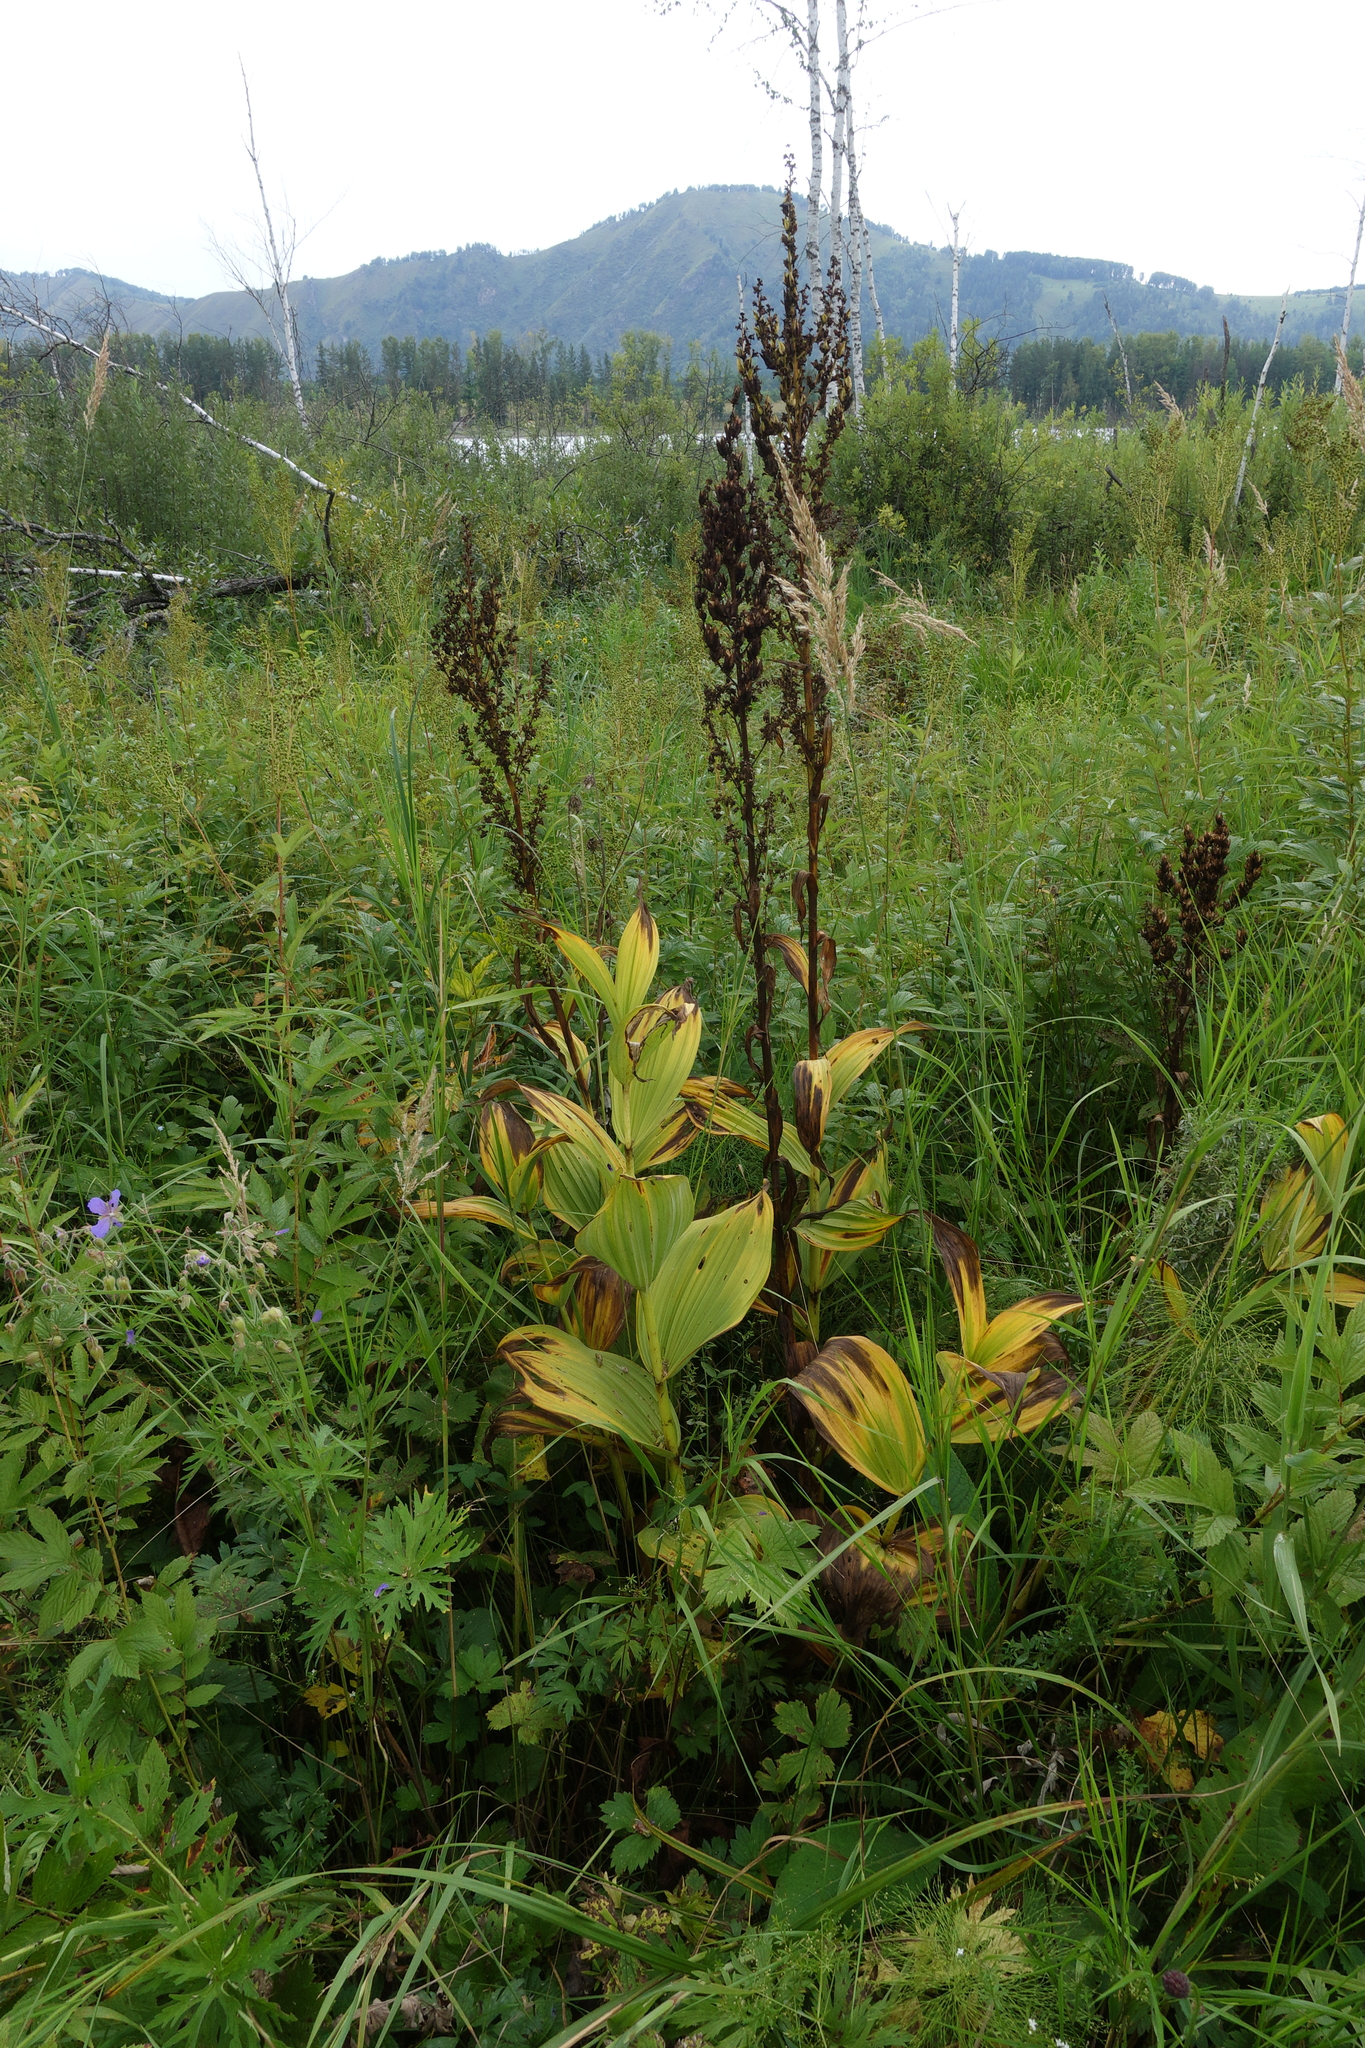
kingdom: Plantae
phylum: Tracheophyta
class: Liliopsida
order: Liliales
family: Melanthiaceae
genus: Veratrum
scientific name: Veratrum lobelianum
